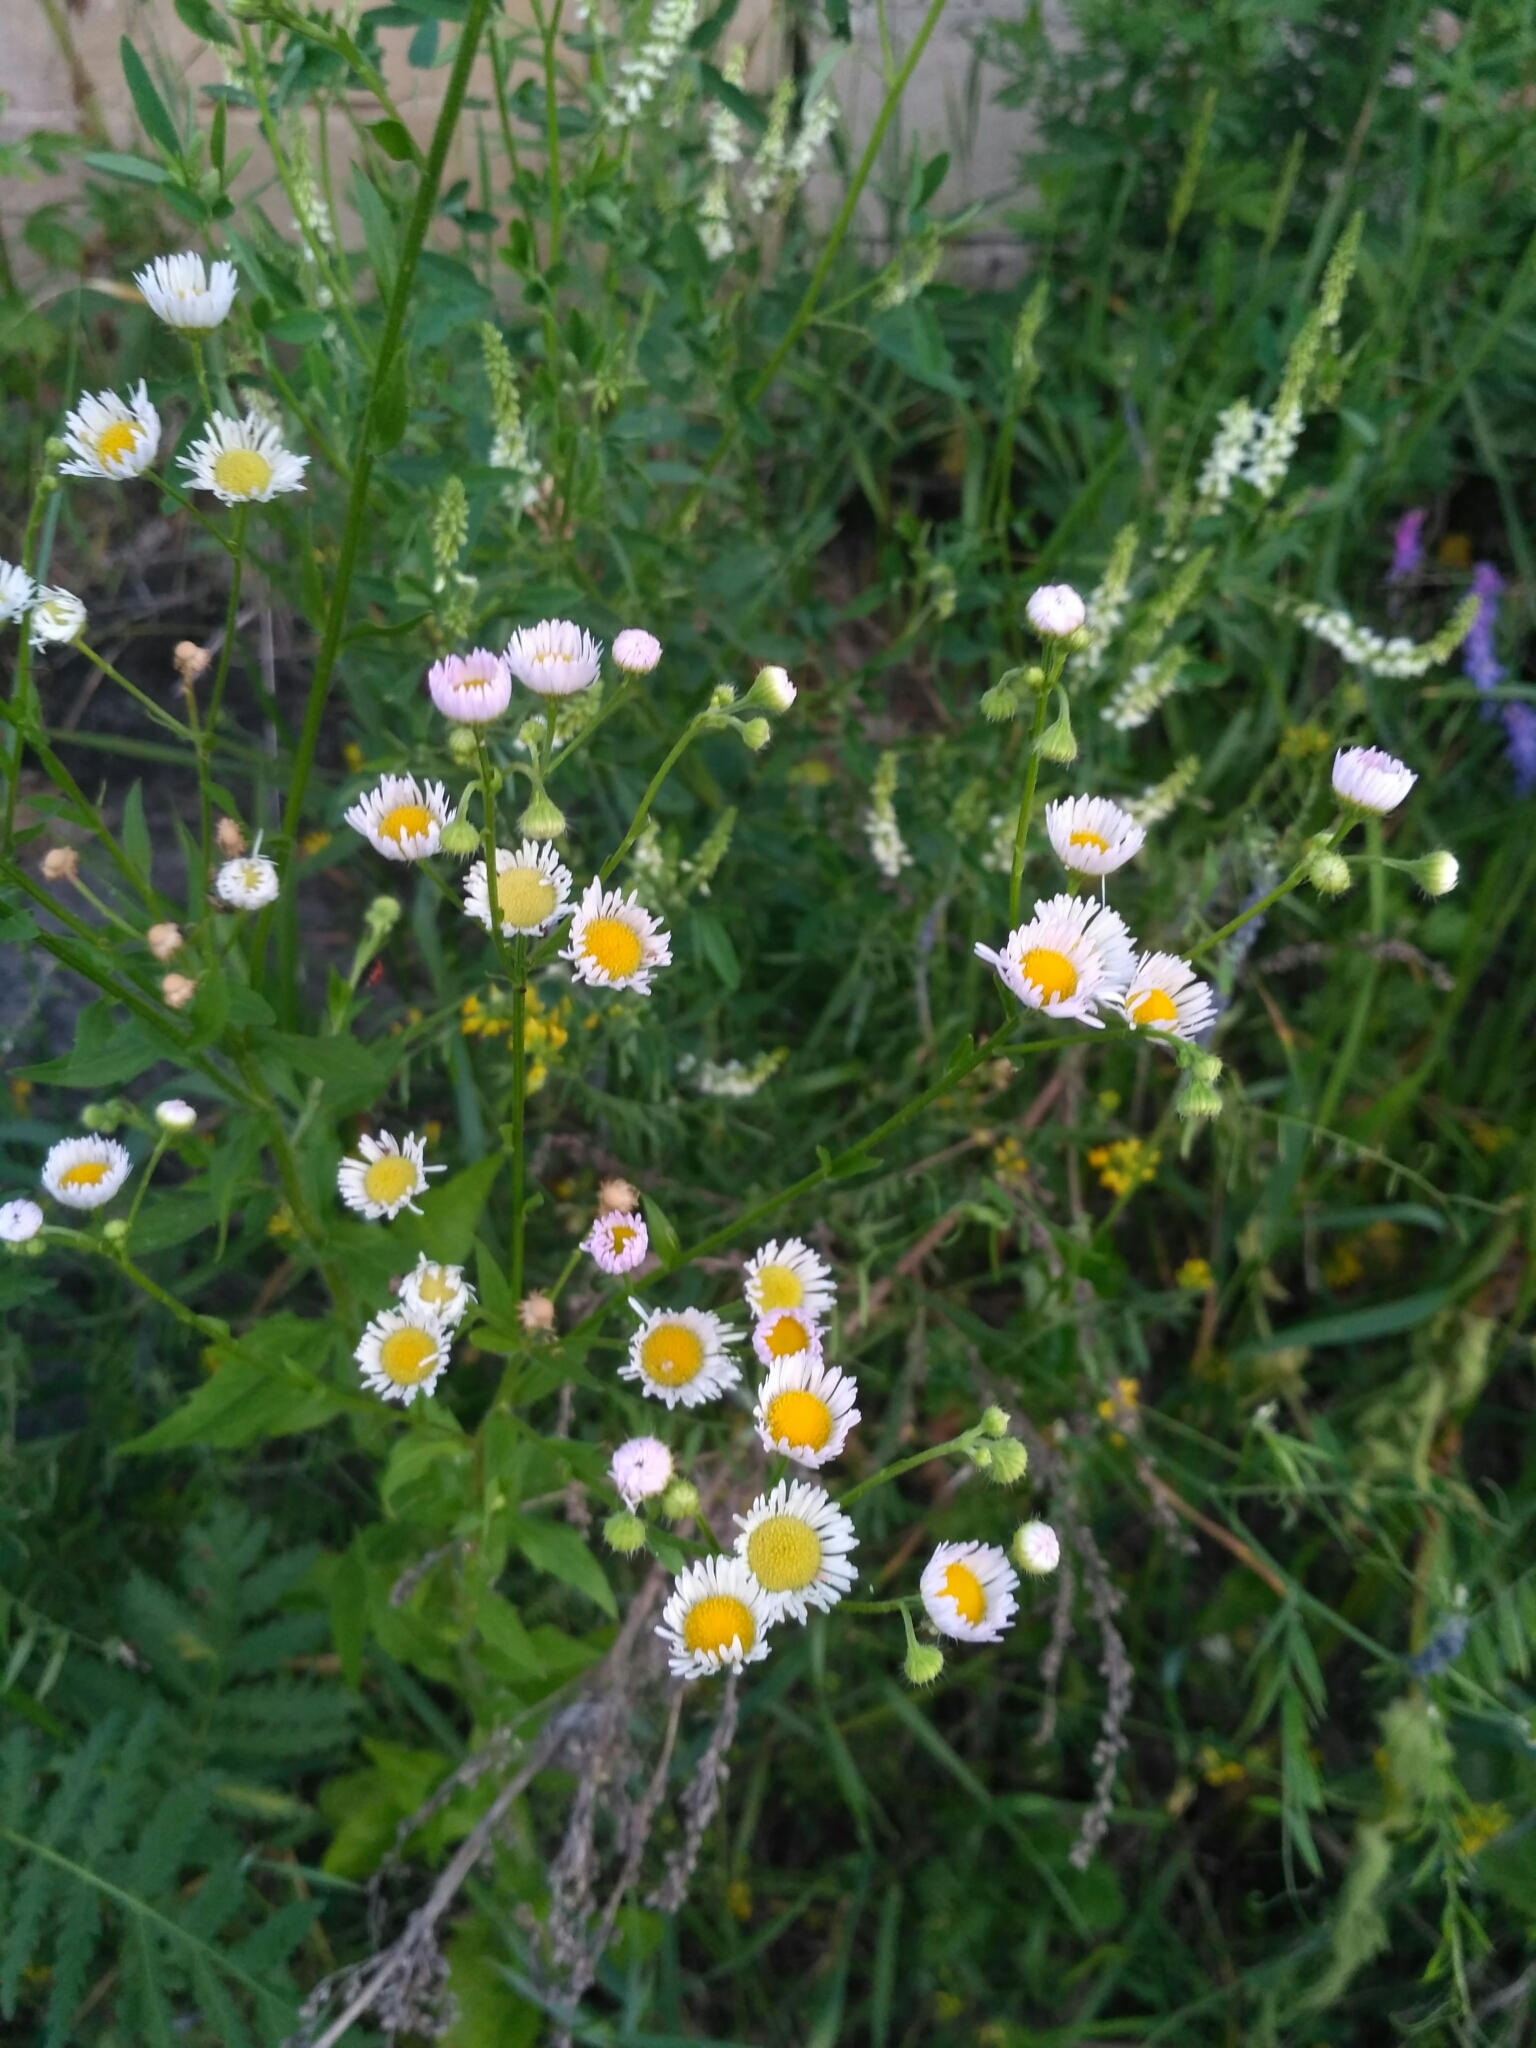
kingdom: Plantae
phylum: Tracheophyta
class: Magnoliopsida
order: Asterales
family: Asteraceae
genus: Erigeron
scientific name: Erigeron annuus
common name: Tall fleabane
